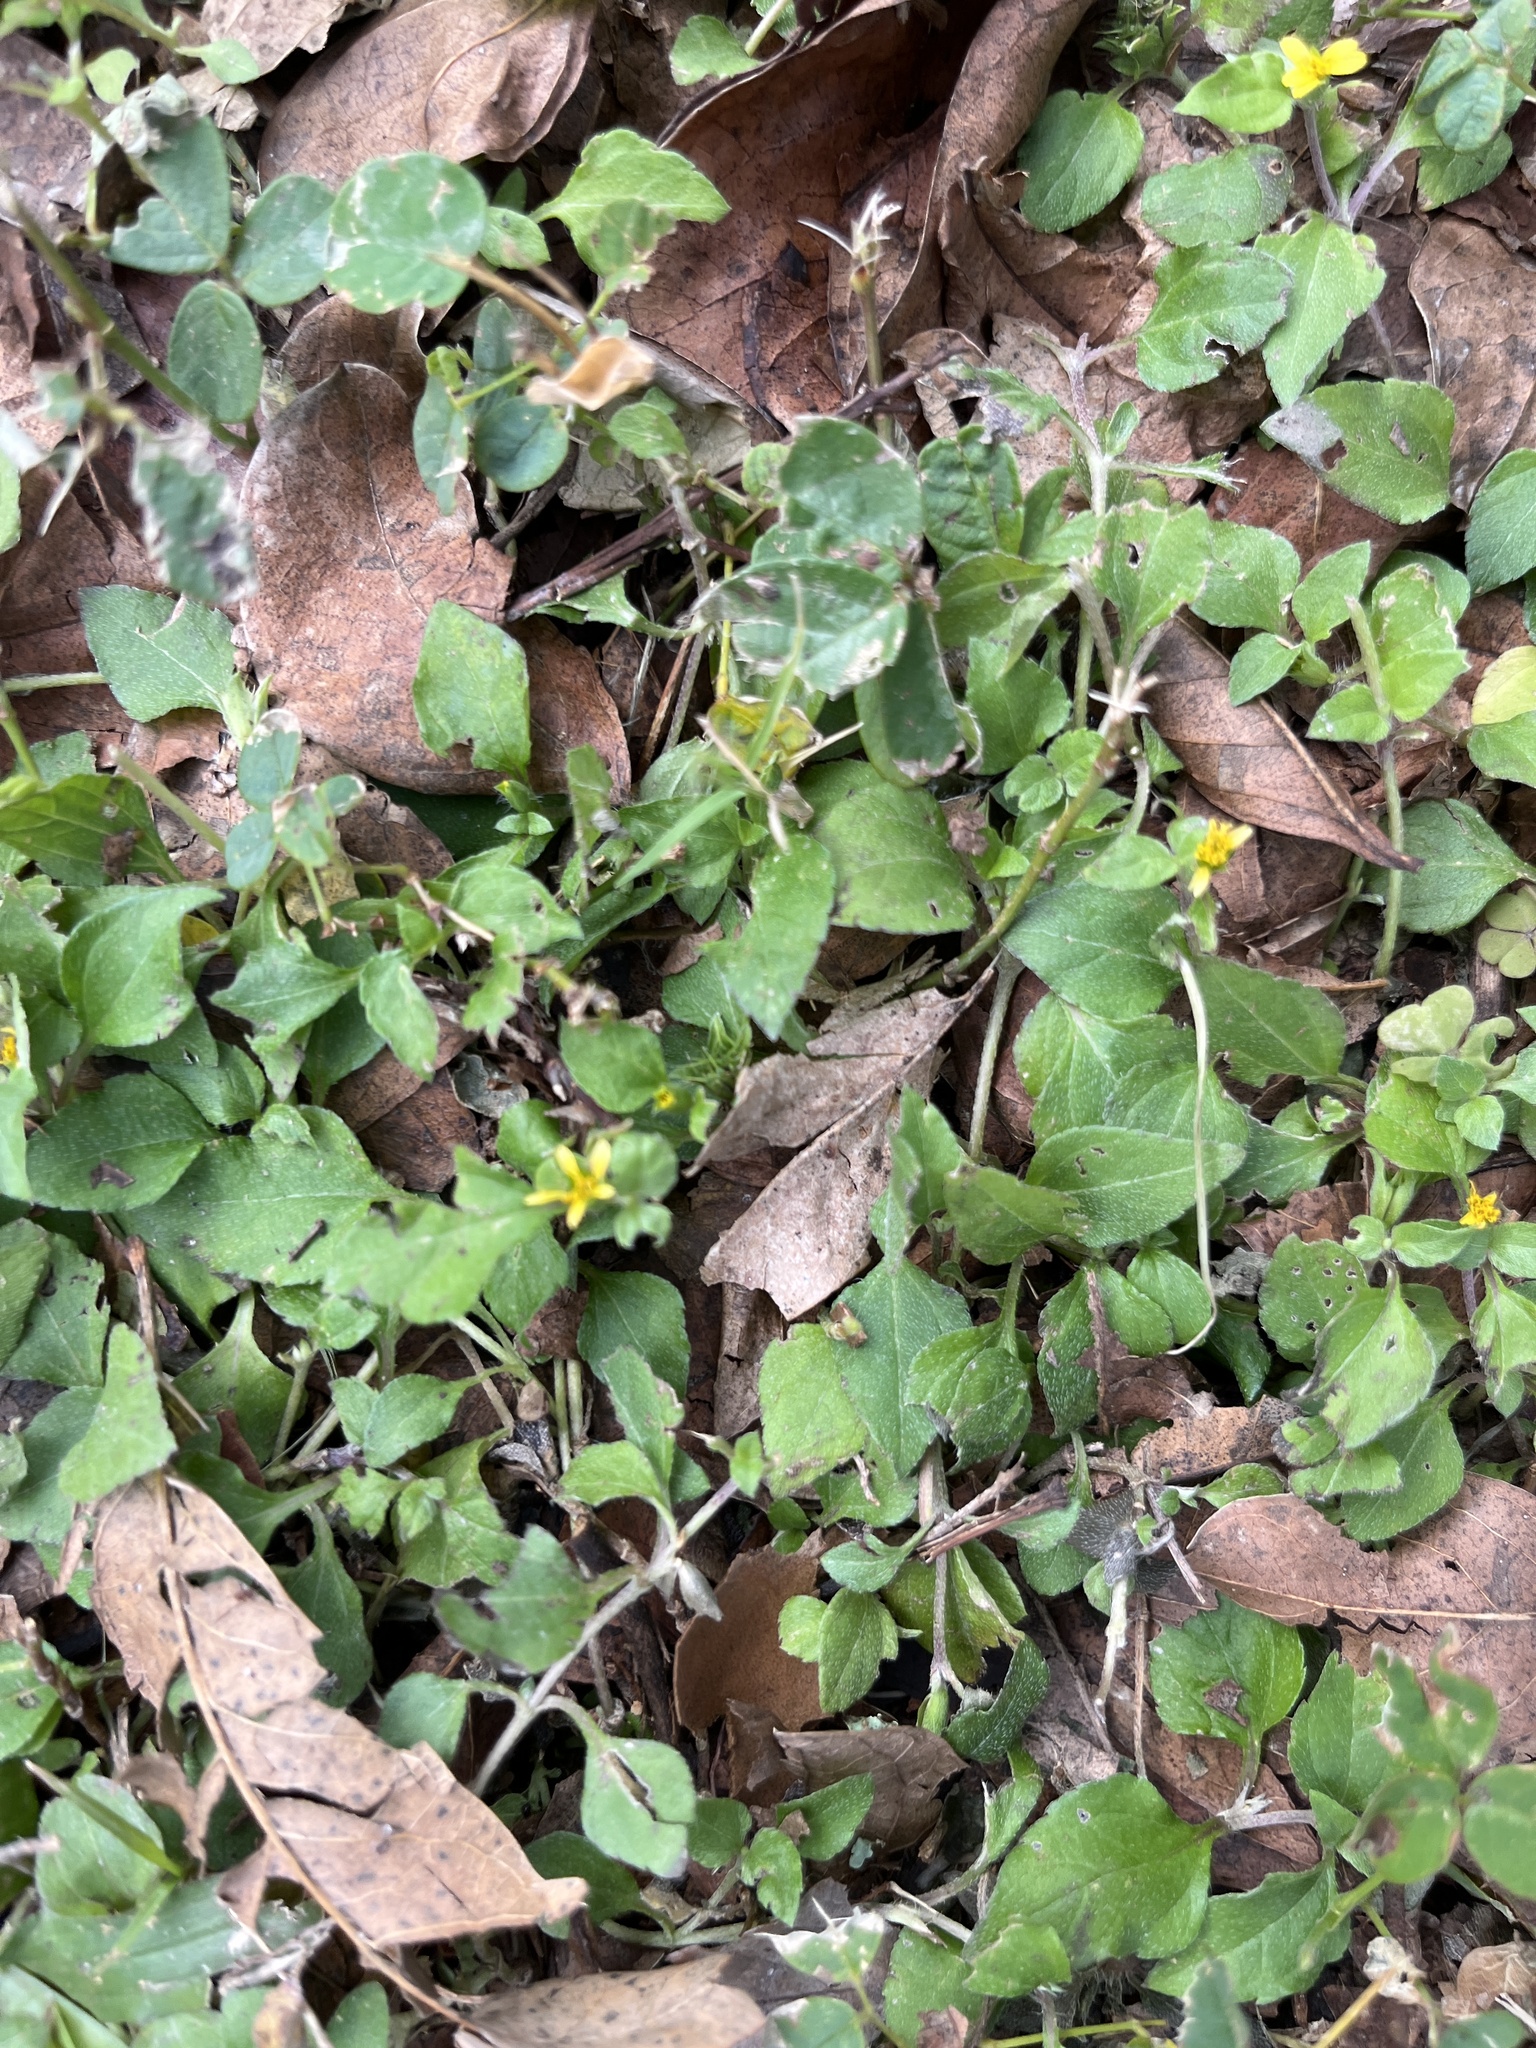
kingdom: Plantae
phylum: Tracheophyta
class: Magnoliopsida
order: Asterales
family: Asteraceae
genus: Calyptocarpus
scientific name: Calyptocarpus vialis
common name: Straggler daisy
